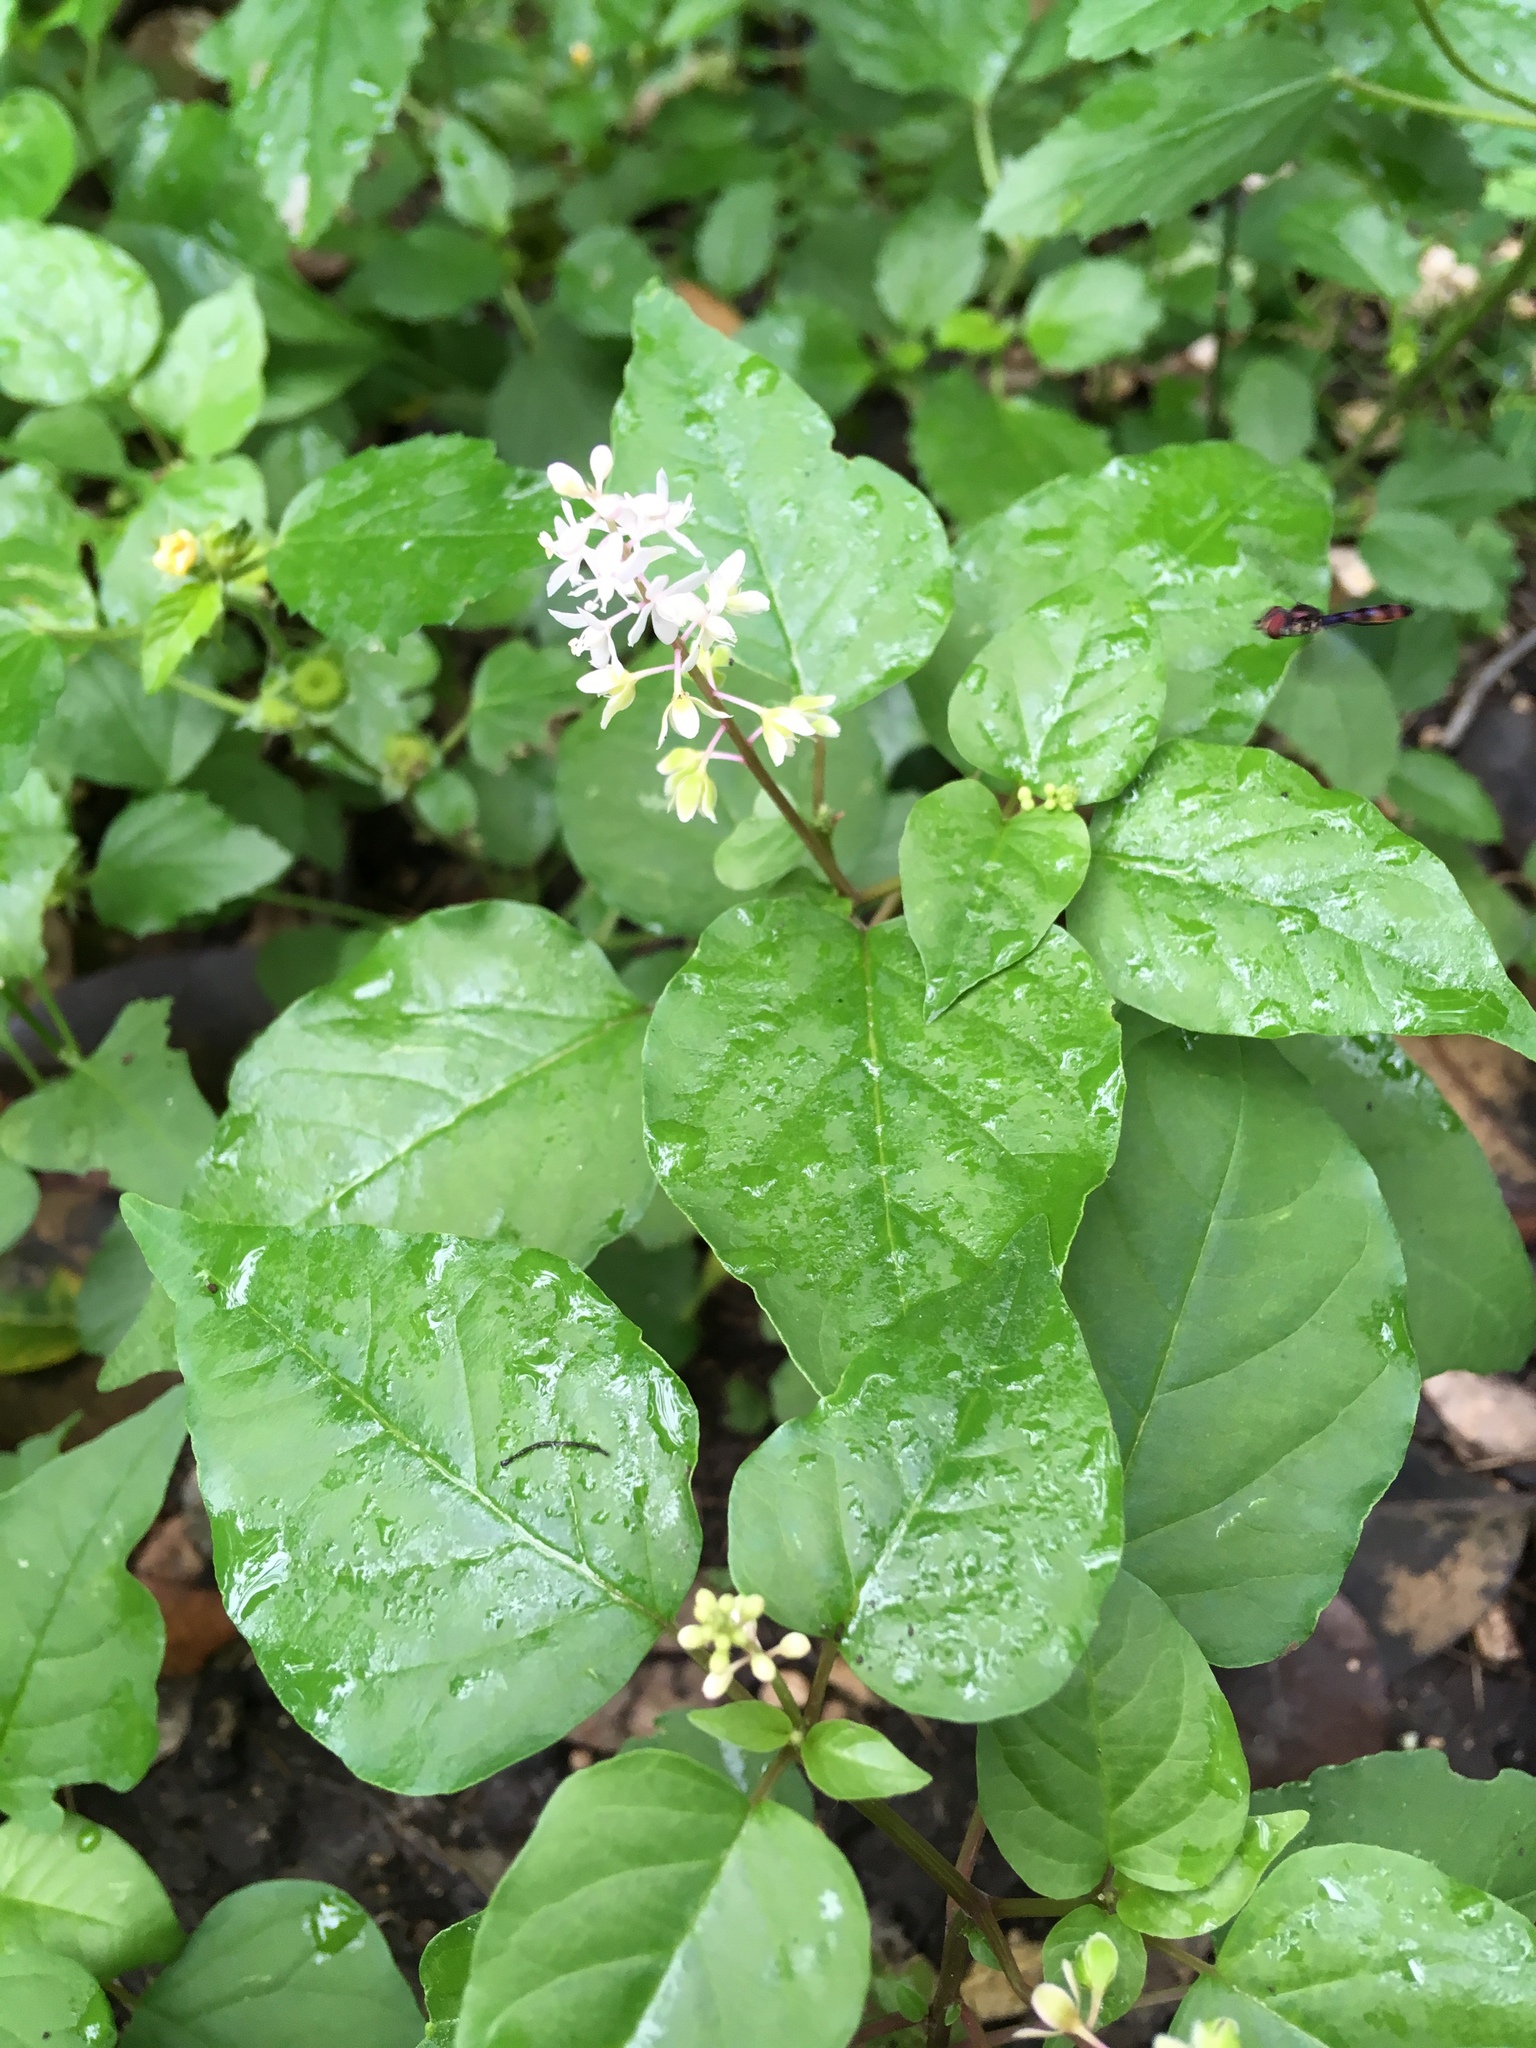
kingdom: Plantae
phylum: Tracheophyta
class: Magnoliopsida
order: Caryophyllales
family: Phytolaccaceae
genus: Rivina
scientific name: Rivina humilis
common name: Rougeplant
